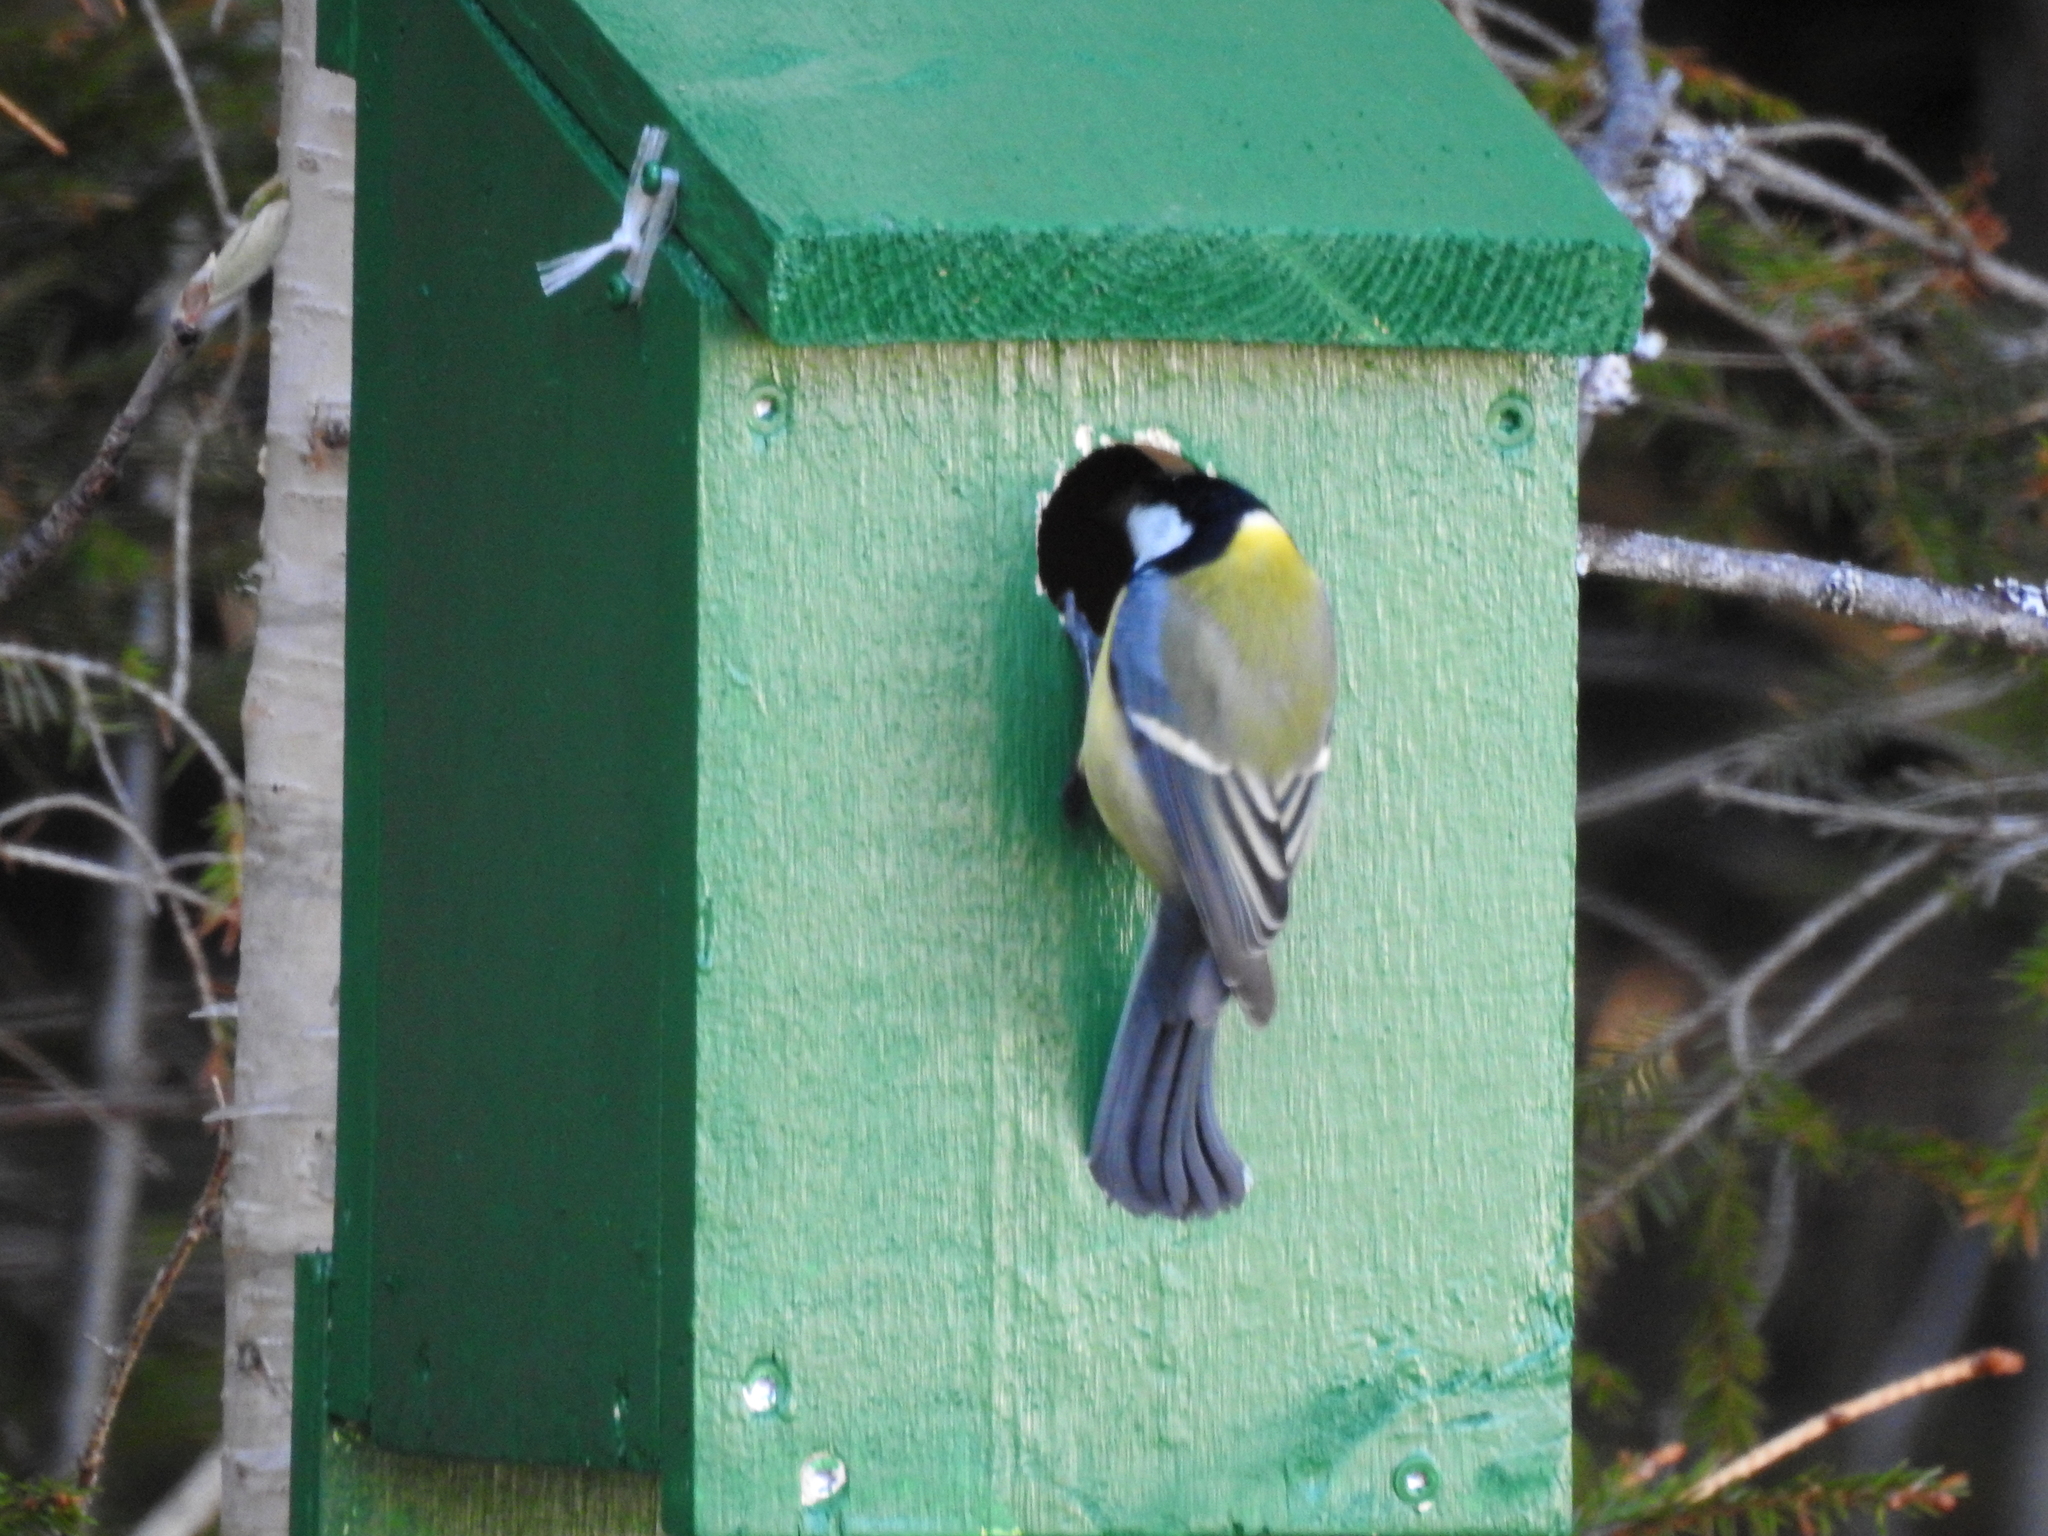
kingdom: Animalia
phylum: Chordata
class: Aves
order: Passeriformes
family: Paridae
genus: Parus
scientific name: Parus major
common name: Great tit
